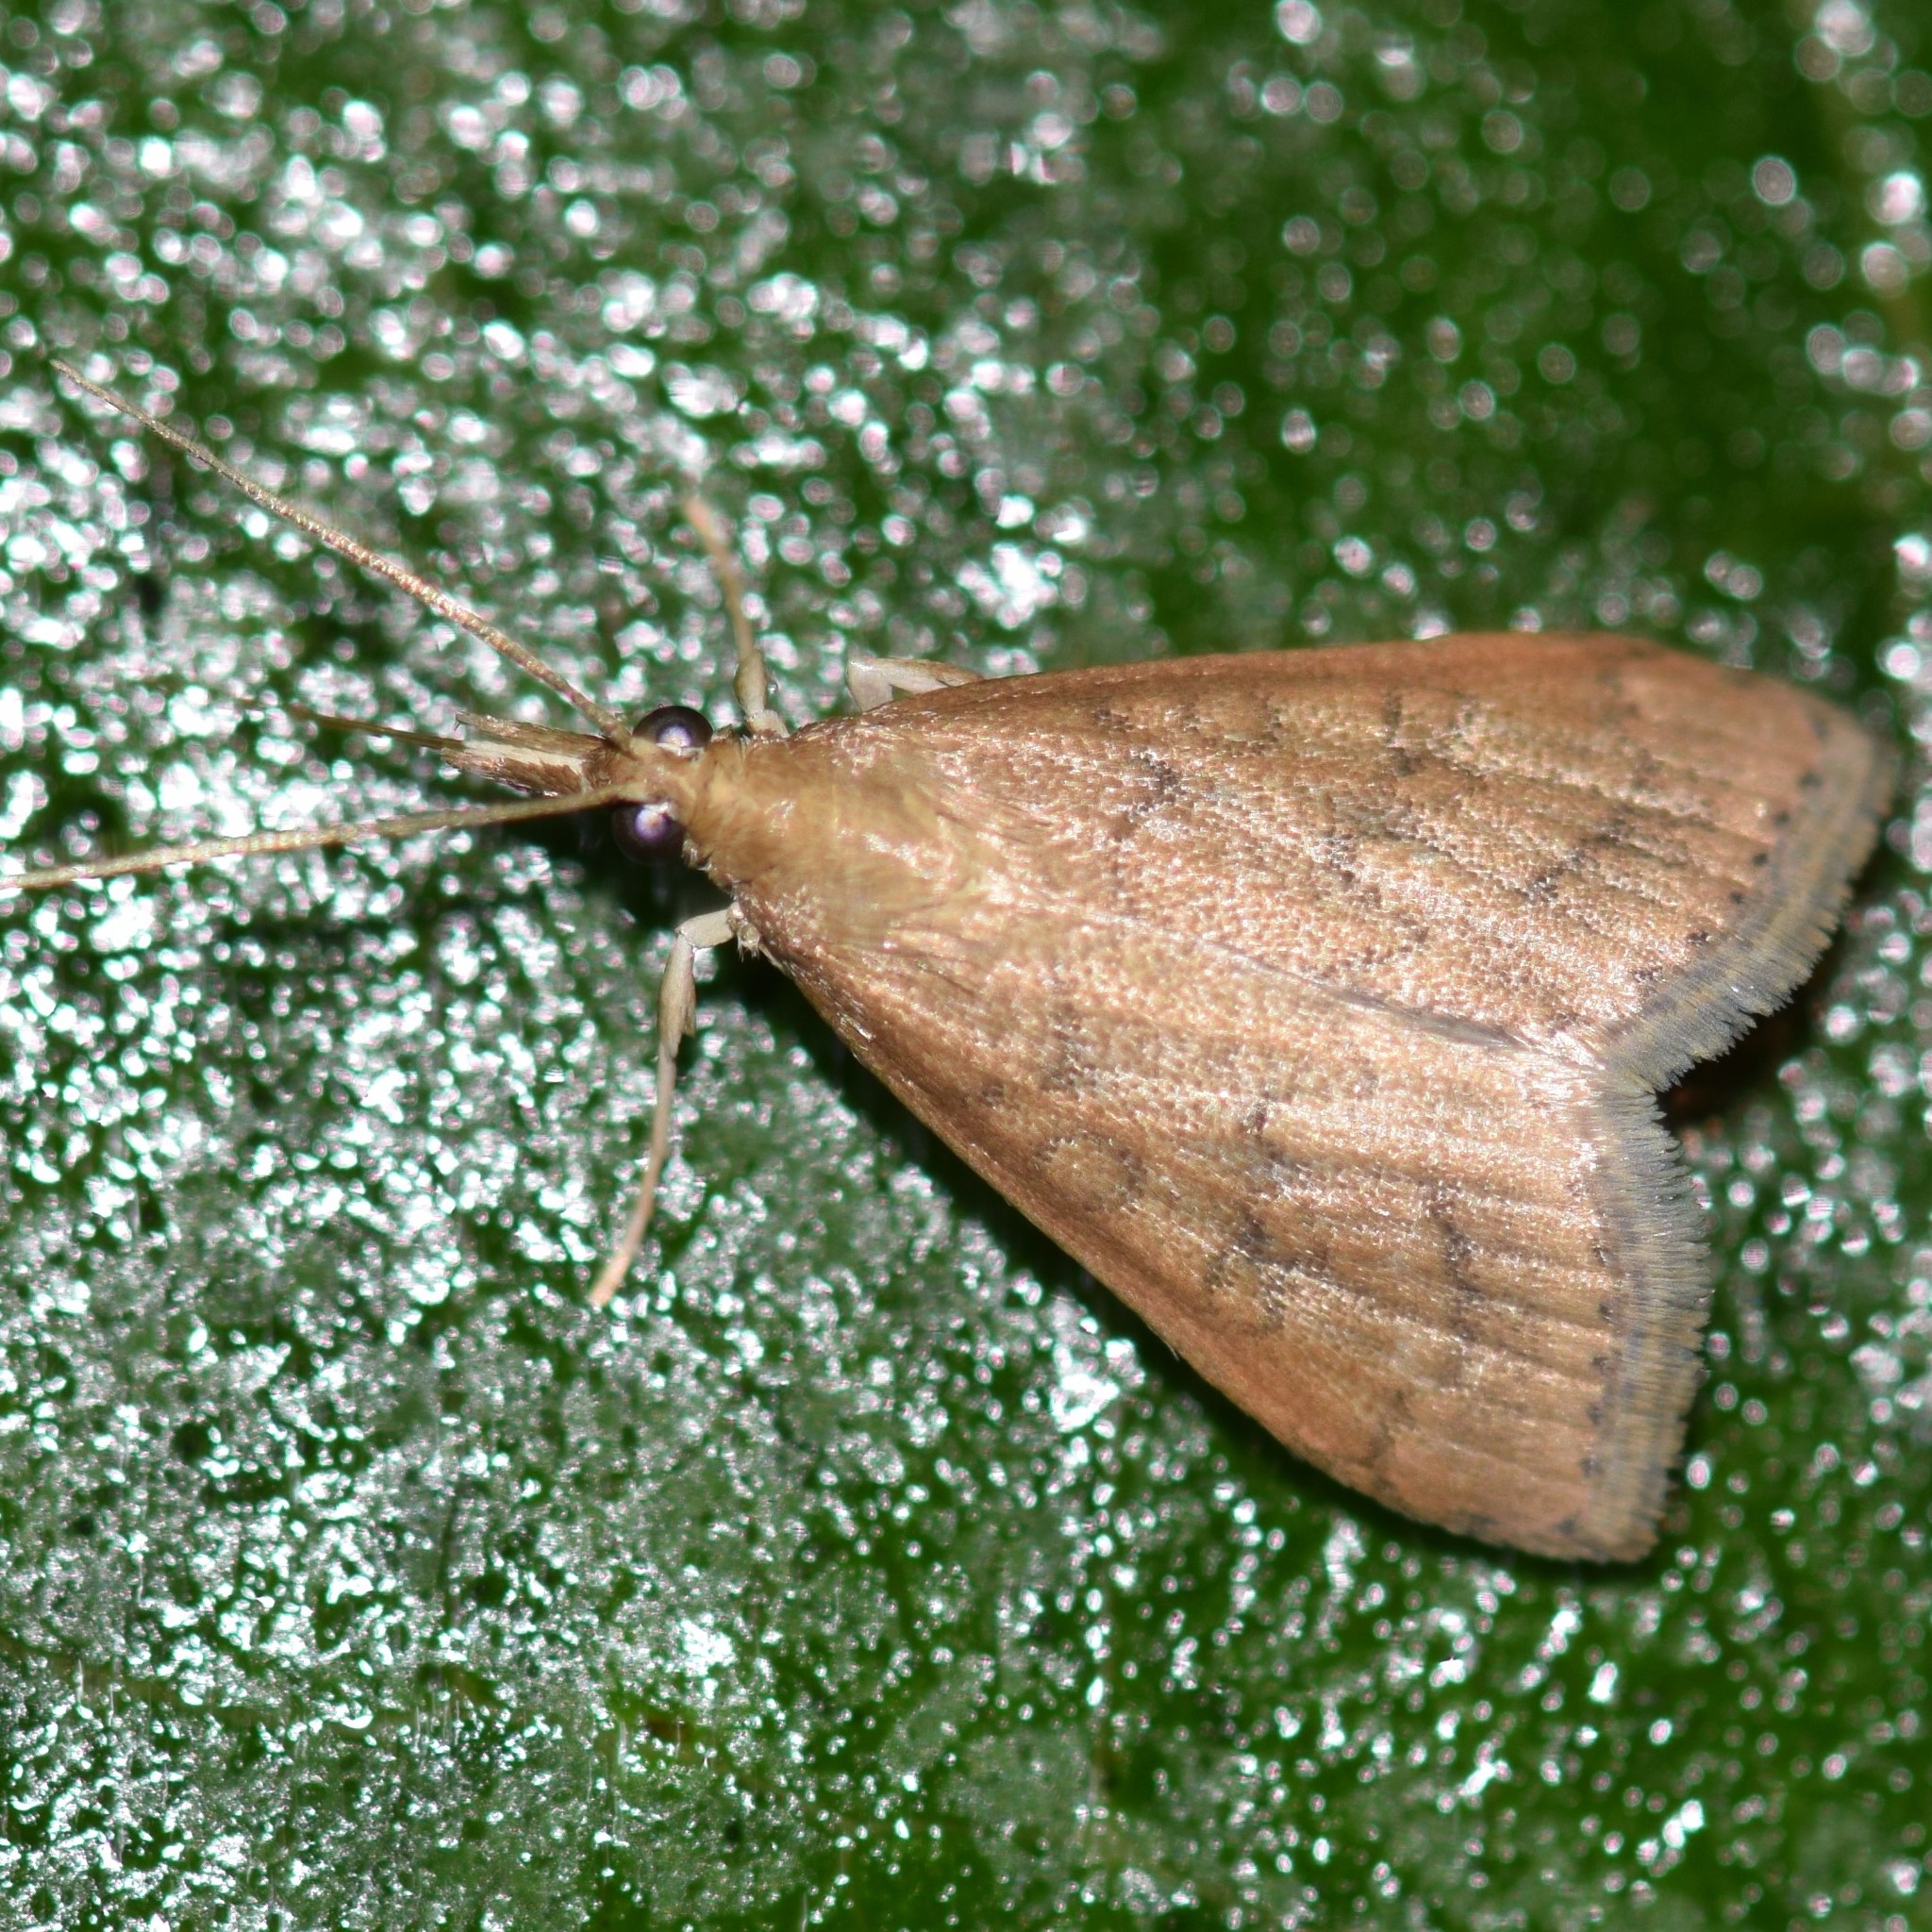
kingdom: Animalia
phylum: Arthropoda
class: Insecta
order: Lepidoptera
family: Crambidae
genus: Udea
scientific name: Udea rubigalis
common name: Celery leaftier moth
